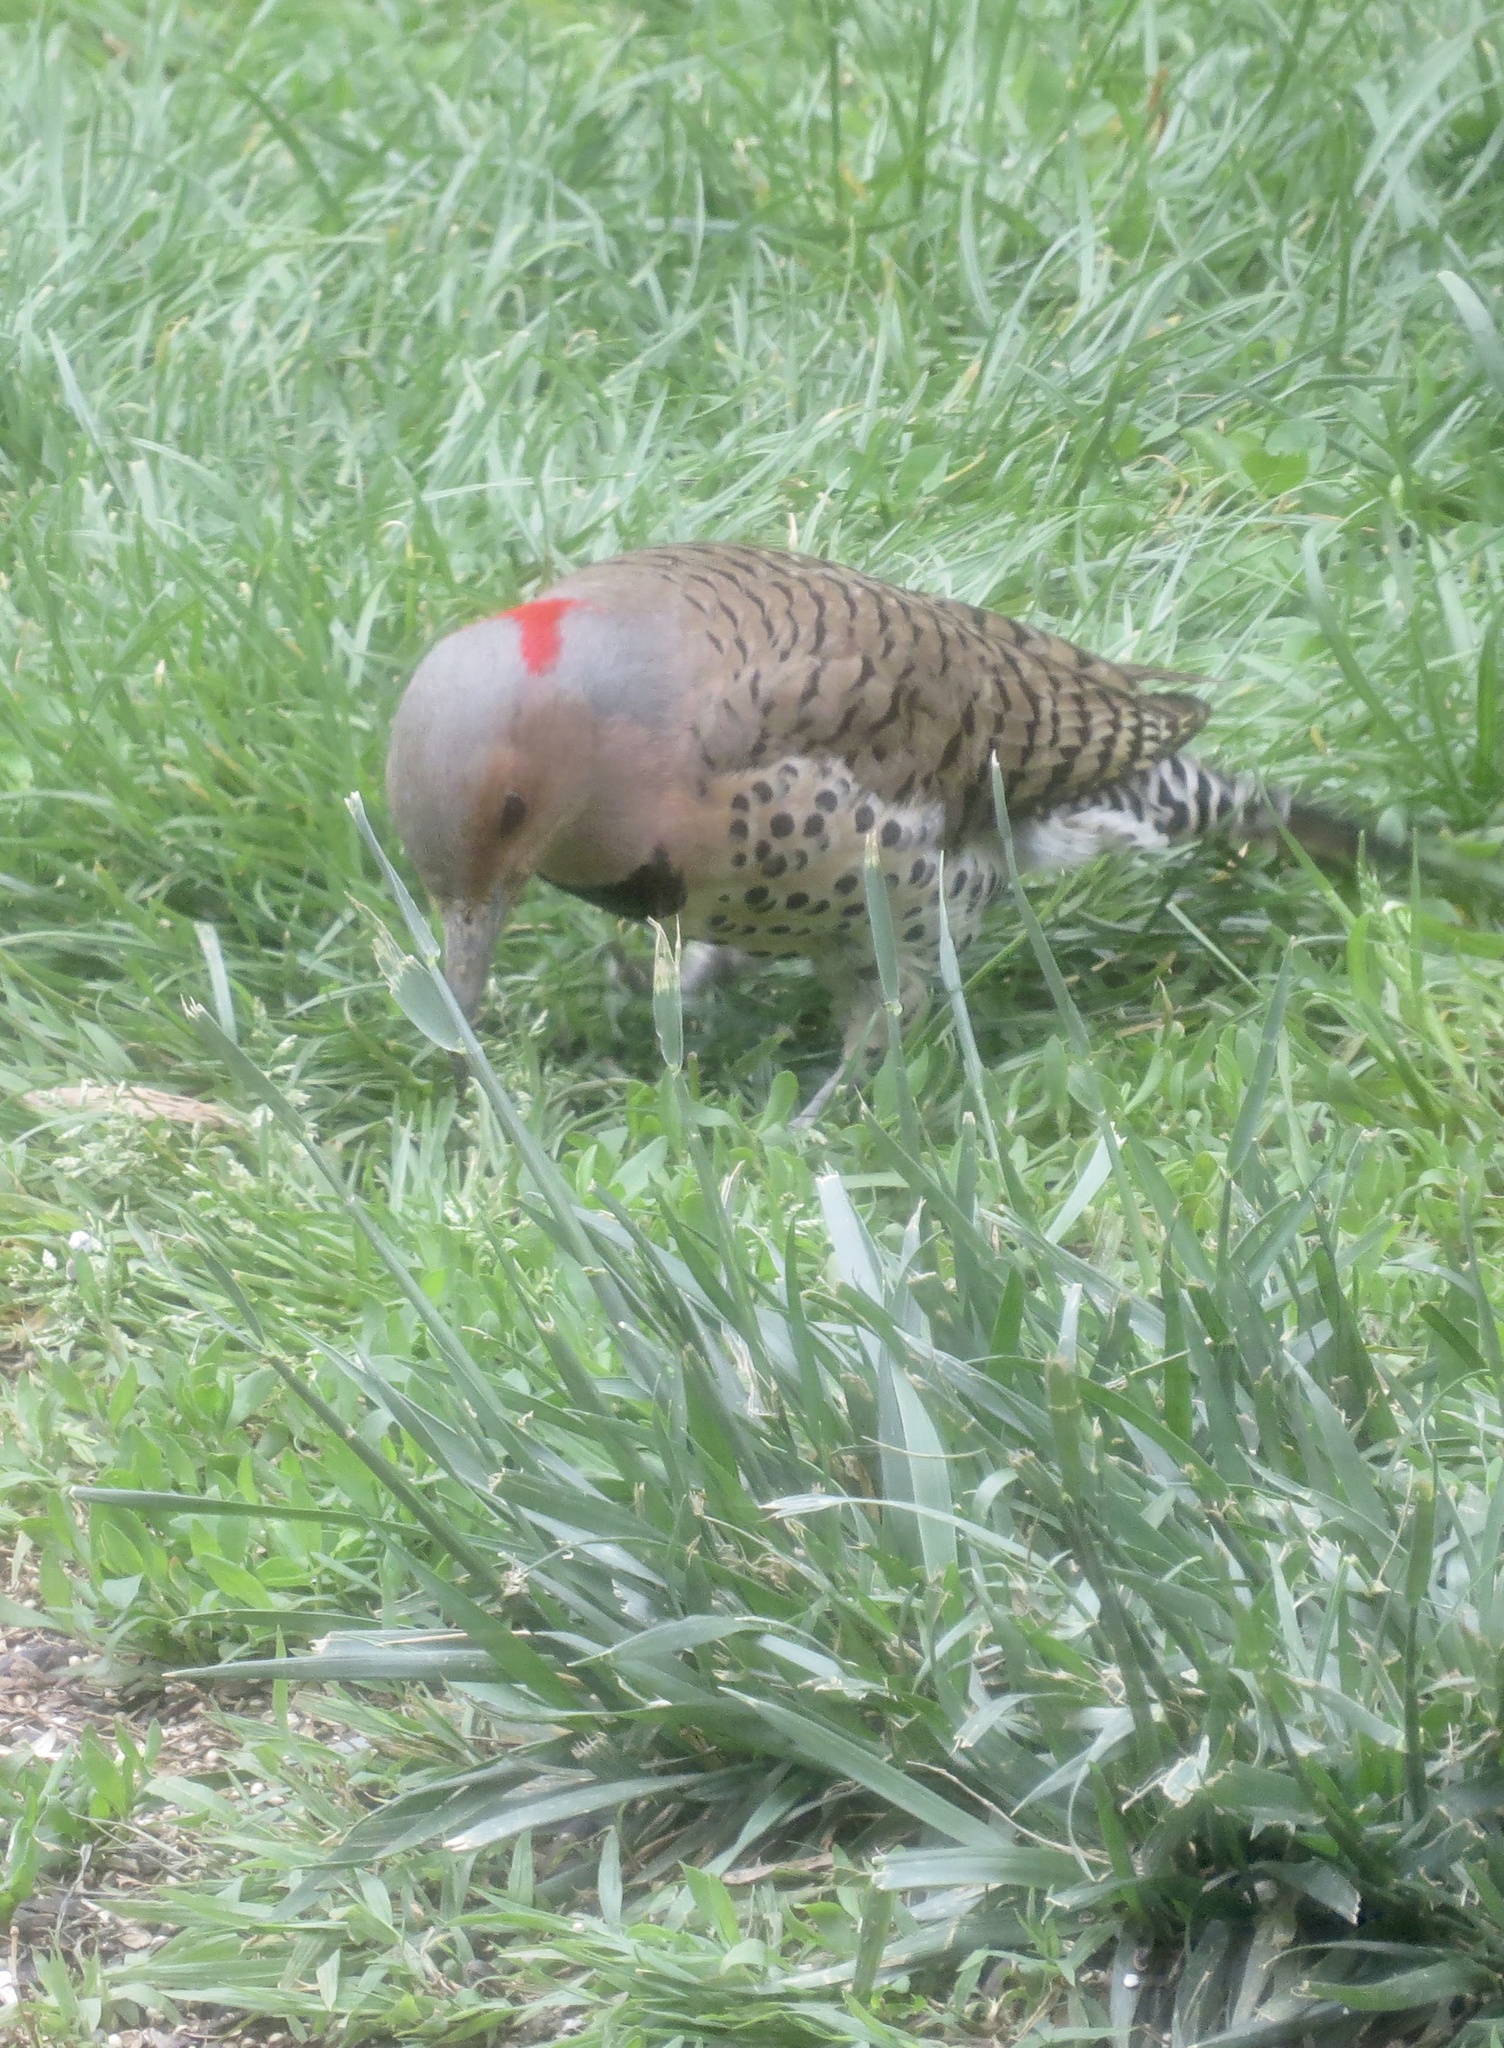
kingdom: Animalia
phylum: Chordata
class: Aves
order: Piciformes
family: Picidae
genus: Colaptes
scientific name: Colaptes auratus
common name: Northern flicker
